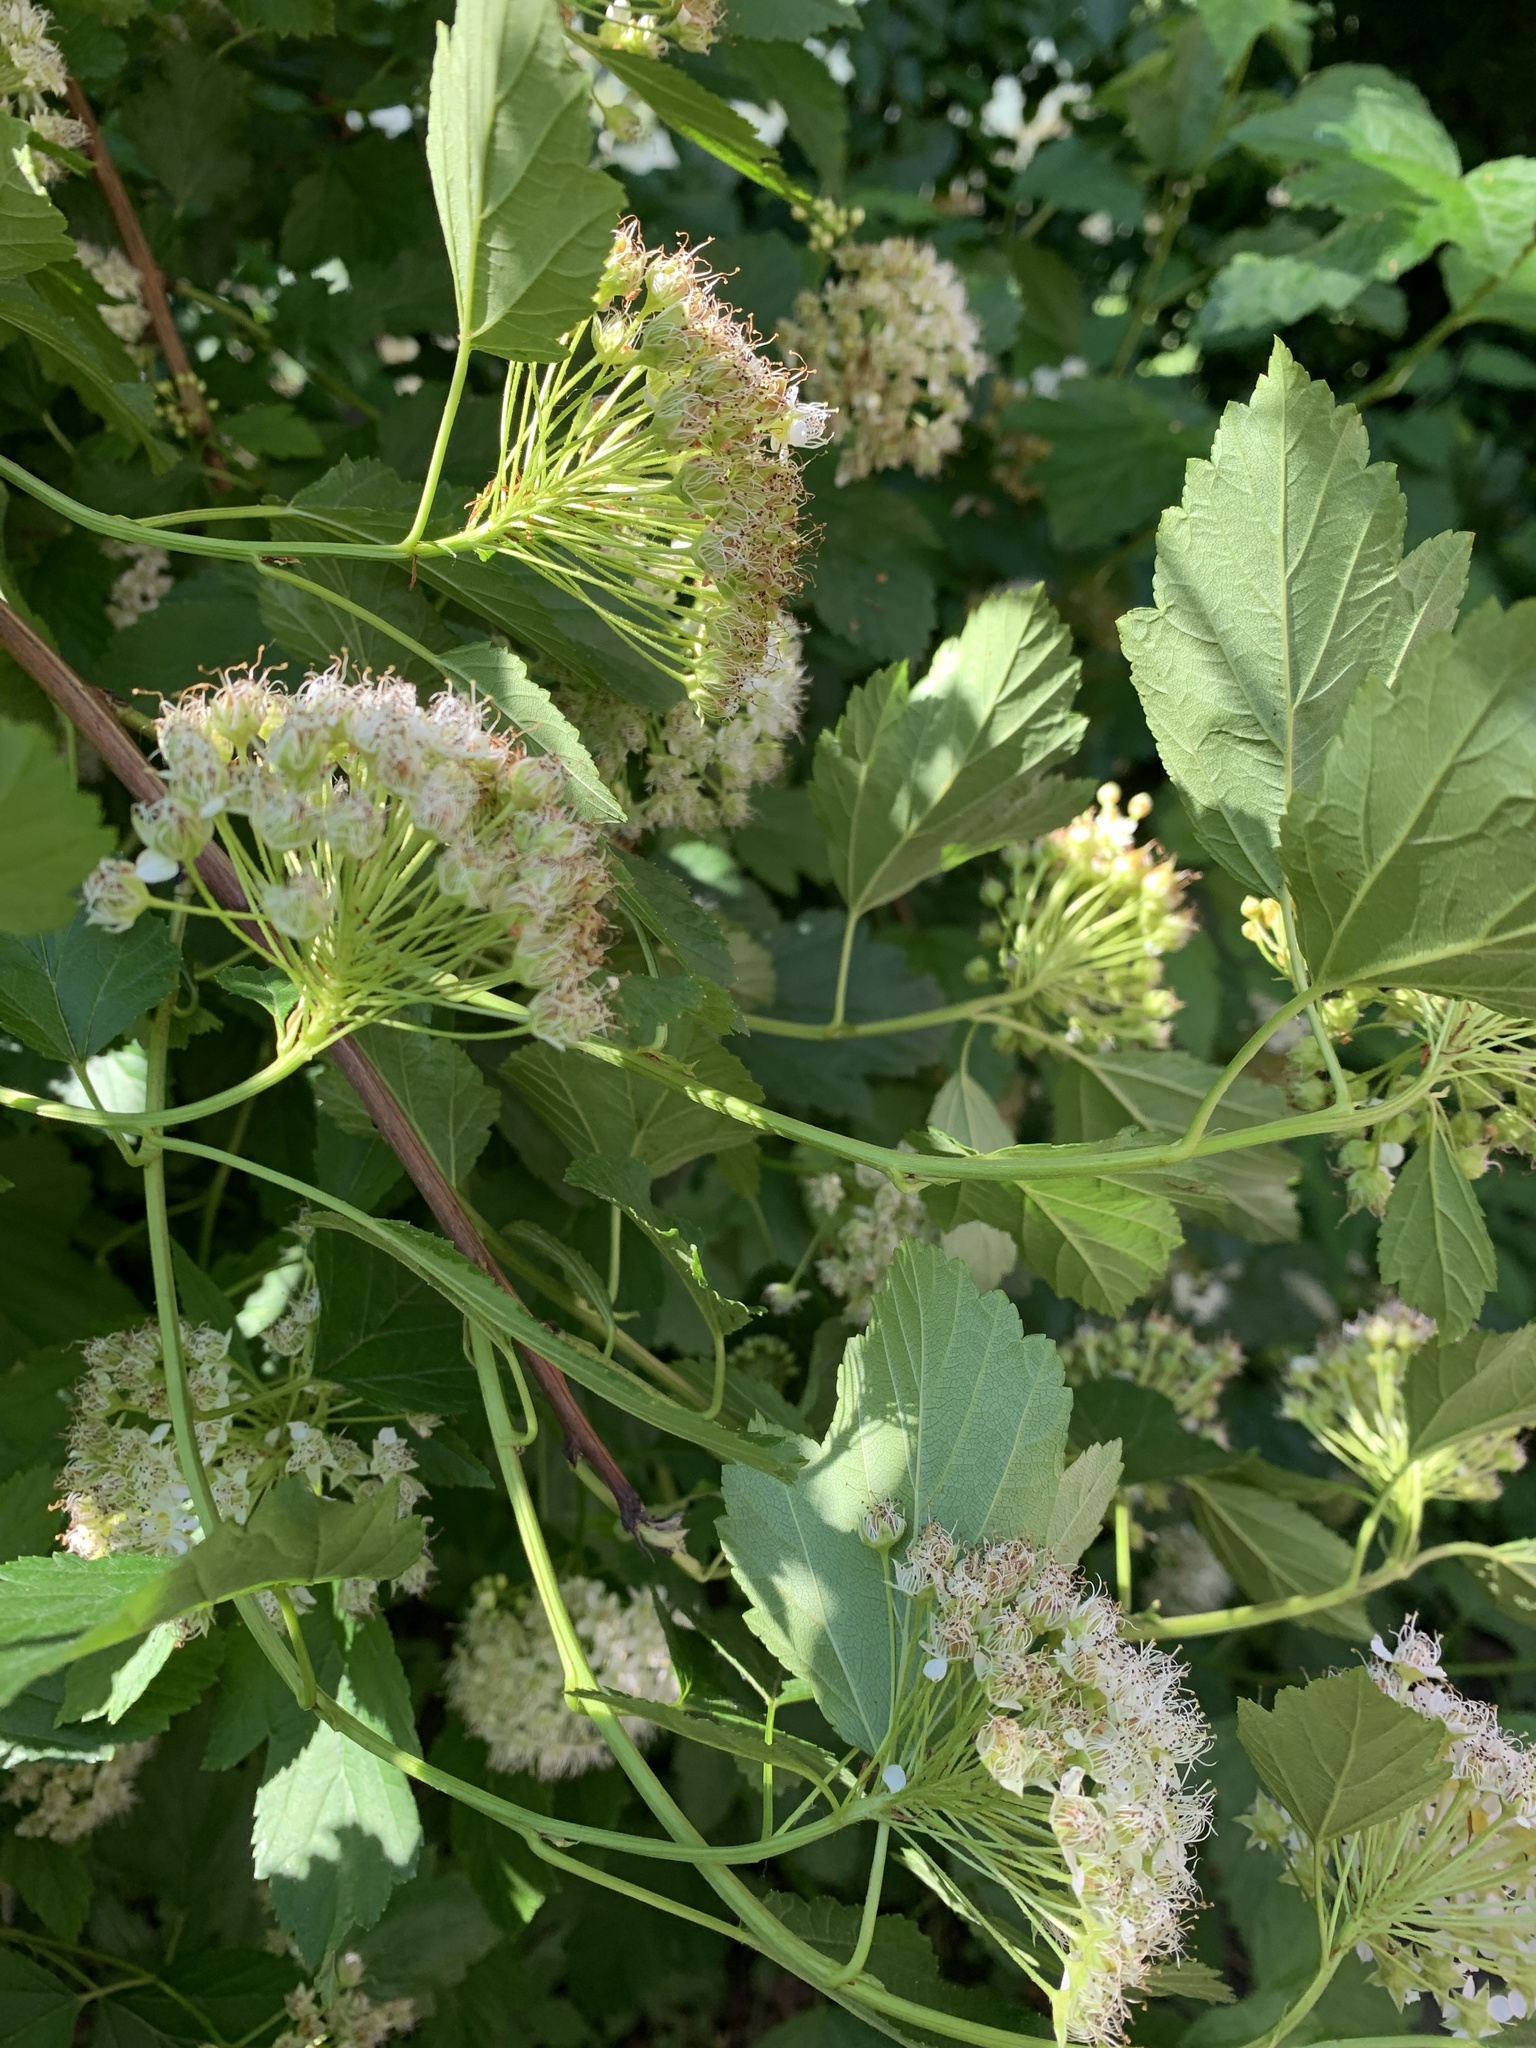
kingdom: Plantae
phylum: Tracheophyta
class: Magnoliopsida
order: Rosales
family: Rosaceae
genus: Physocarpus
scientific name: Physocarpus opulifolius
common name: Ninebark
